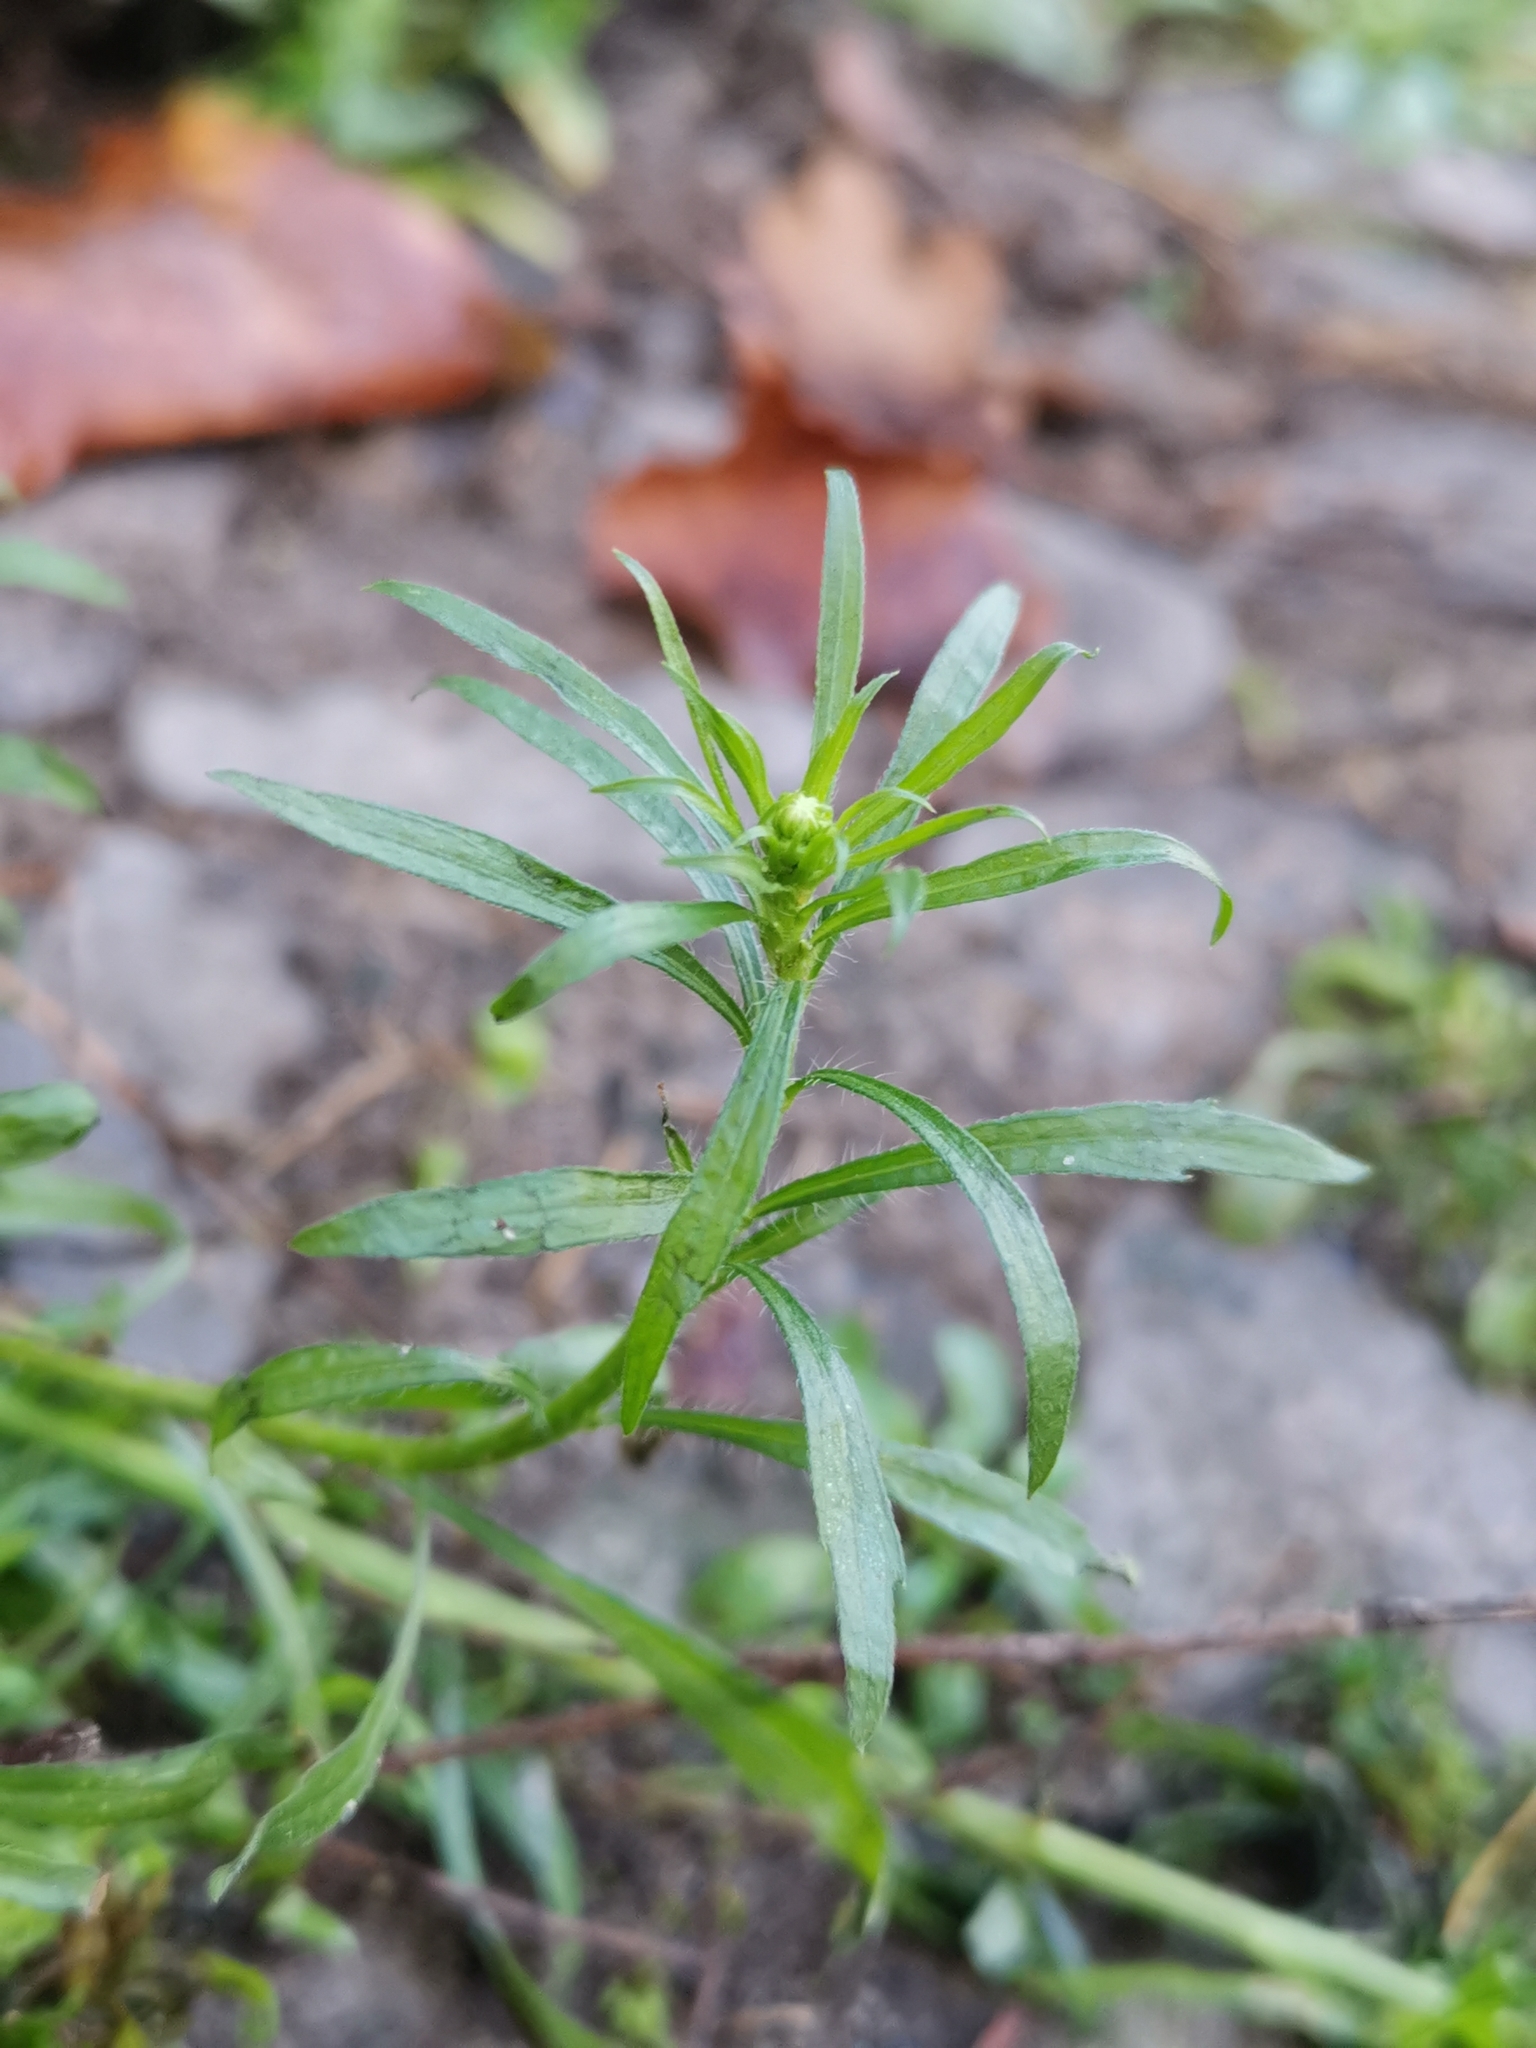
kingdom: Plantae
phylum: Tracheophyta
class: Magnoliopsida
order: Asterales
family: Asteraceae
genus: Erigeron
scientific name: Erigeron canadensis
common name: Canadian fleabane
